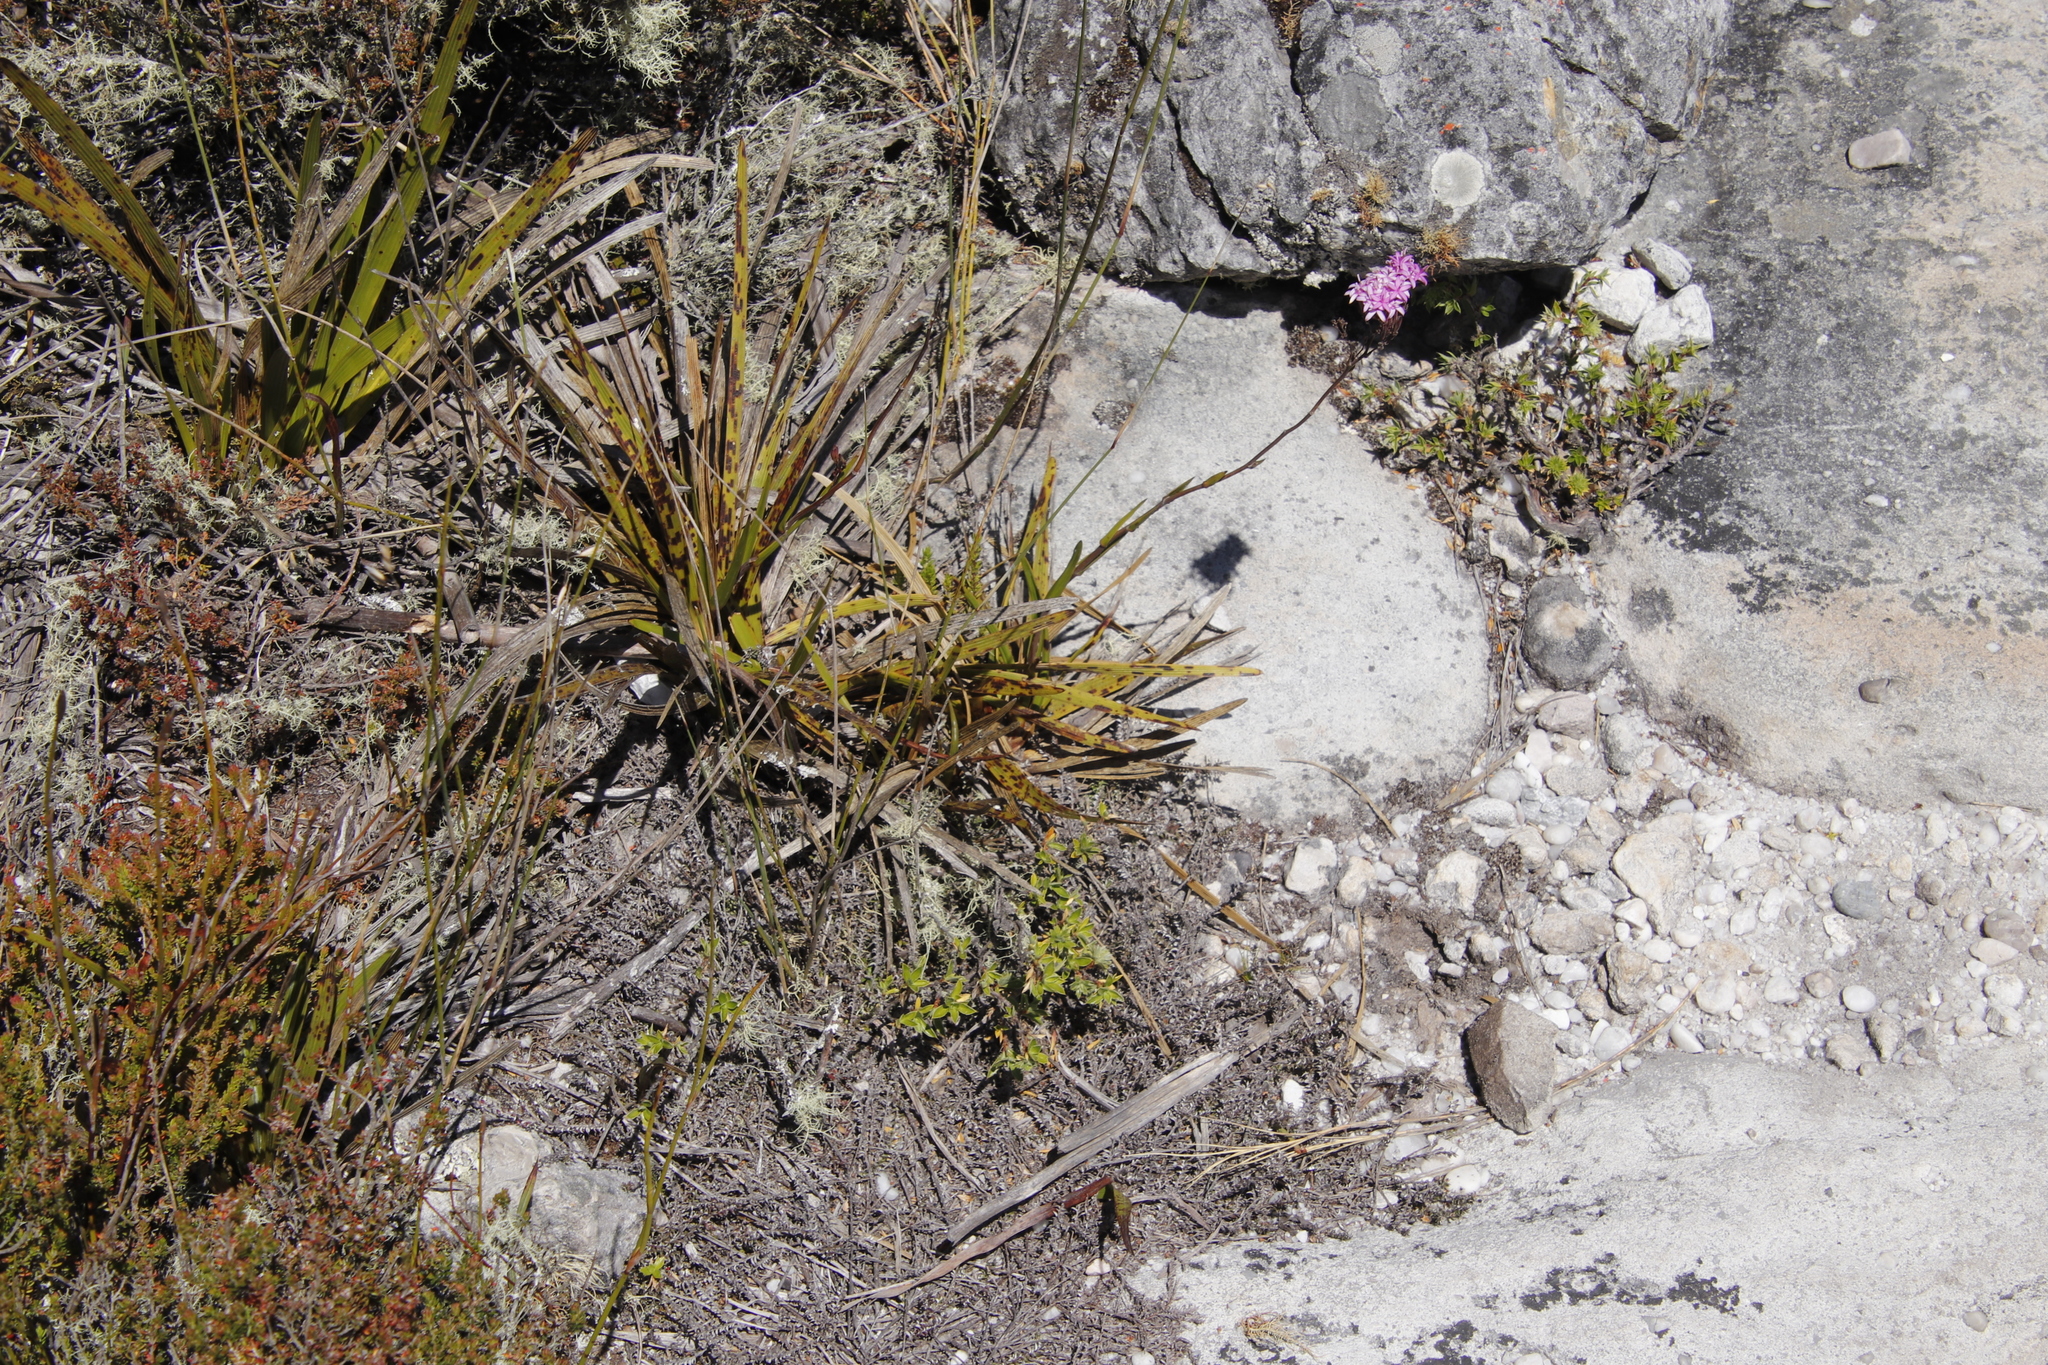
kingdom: Plantae
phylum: Tracheophyta
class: Magnoliopsida
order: Asterales
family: Asteraceae
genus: Corymbium
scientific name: Corymbium glabrum
